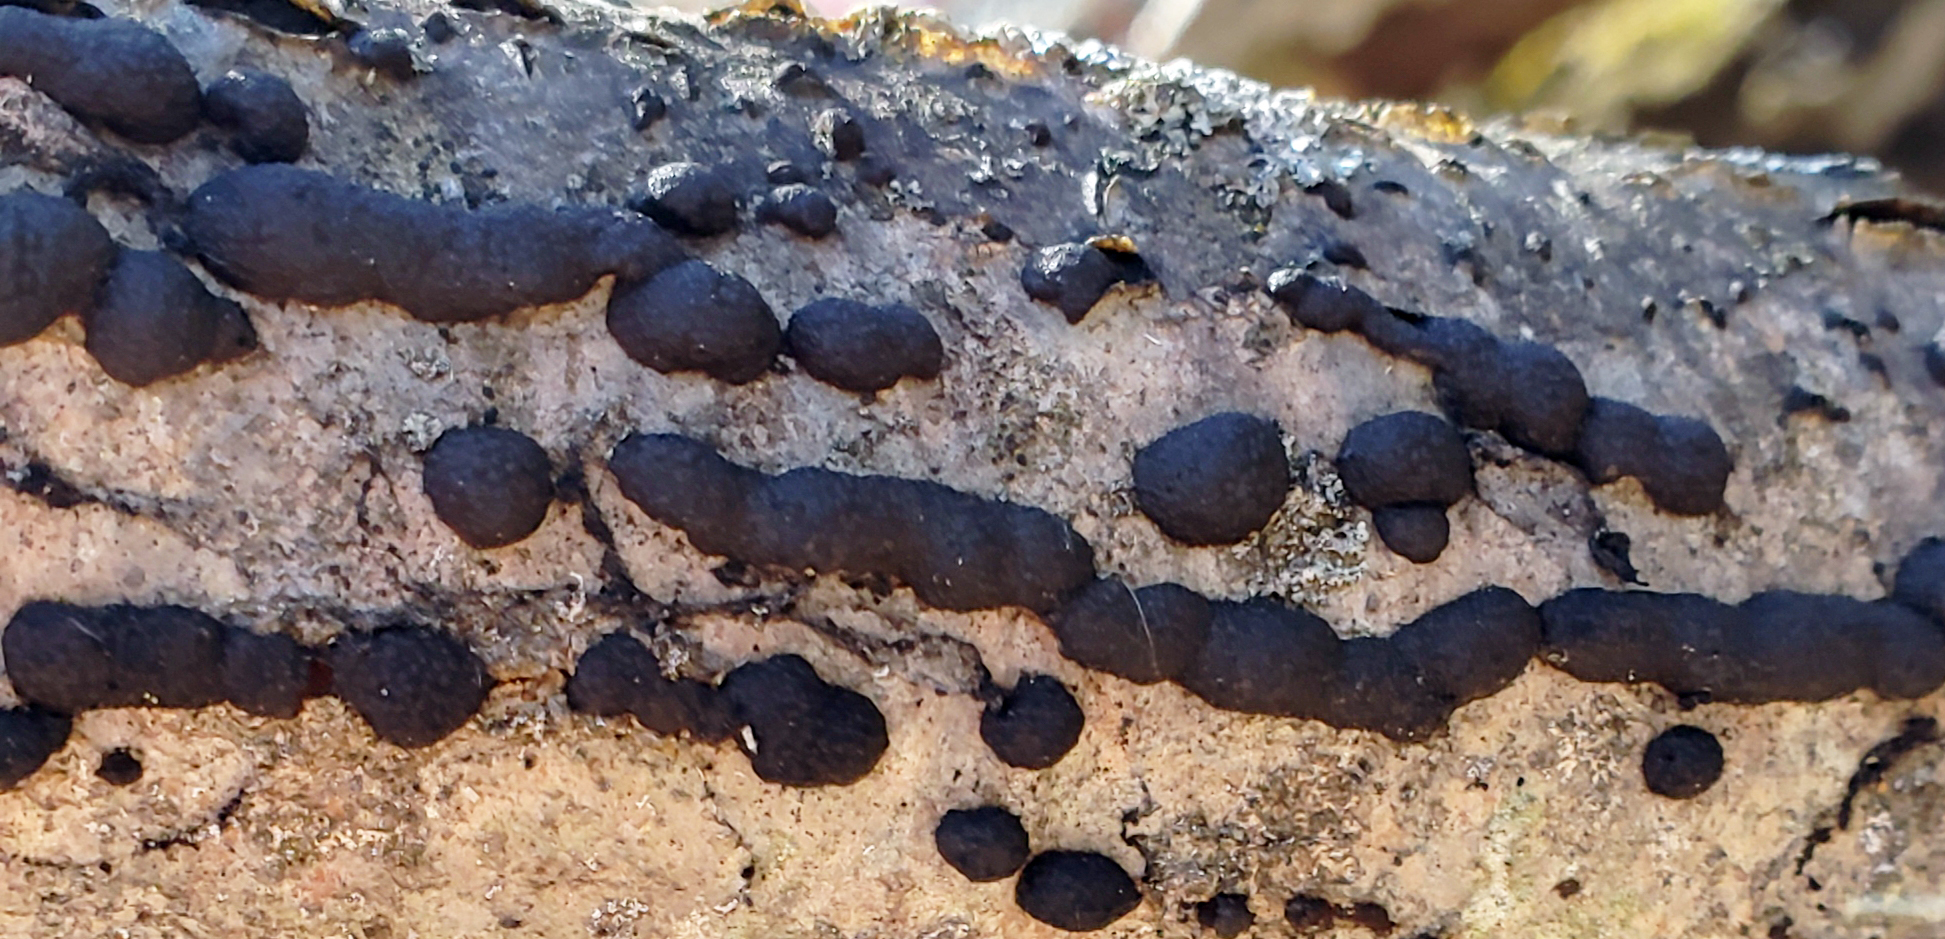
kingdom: Fungi
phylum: Ascomycota
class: Sordariomycetes
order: Xylariales
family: Hypoxylaceae
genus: Annulohypoxylon
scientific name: Annulohypoxylon thouarsianum
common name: Cramp balls
